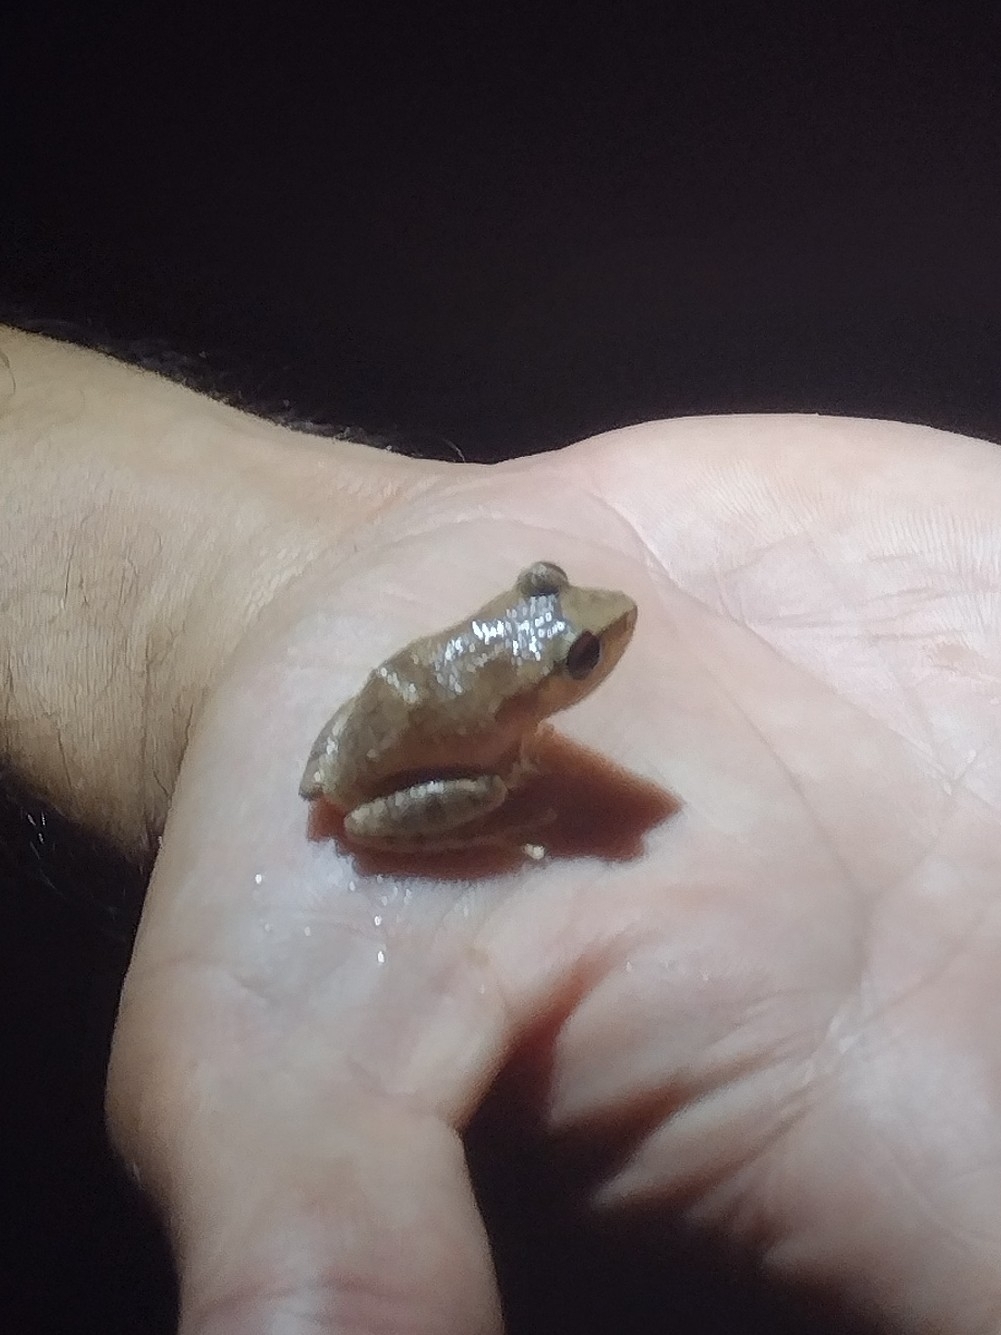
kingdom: Animalia
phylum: Chordata
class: Amphibia
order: Anura
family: Eleutherodactylidae
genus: Eleutherodactylus
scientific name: Eleutherodactylus antillensis
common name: Antillean coqui
